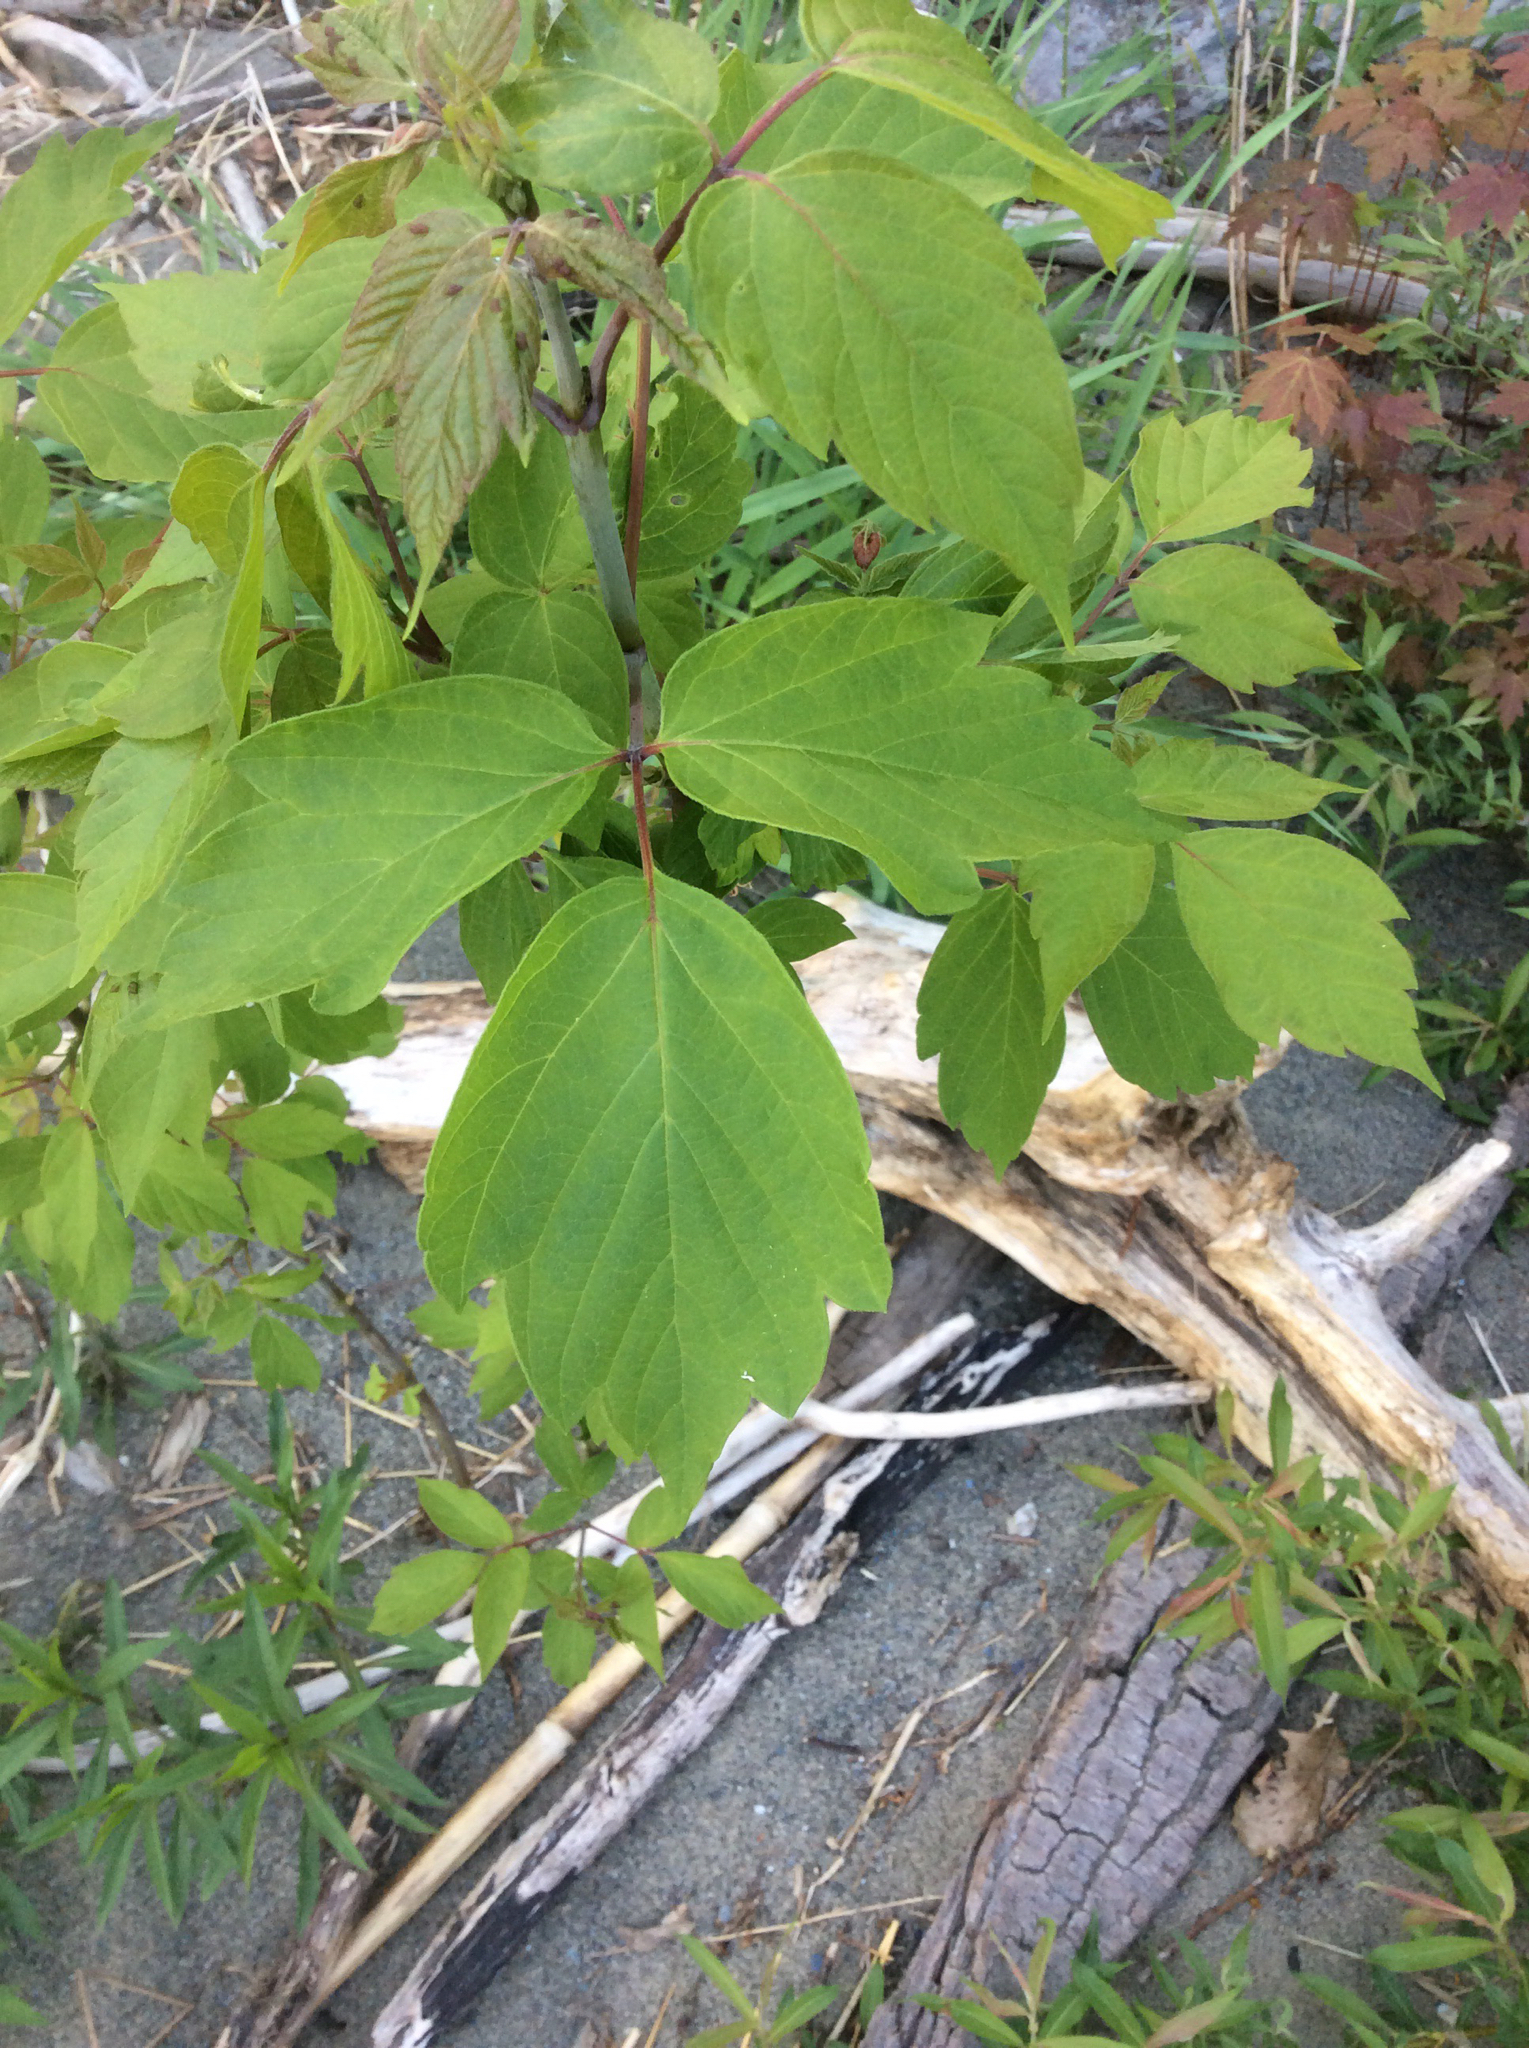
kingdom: Plantae
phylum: Tracheophyta
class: Magnoliopsida
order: Sapindales
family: Sapindaceae
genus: Acer
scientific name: Acer negundo
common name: Ashleaf maple
